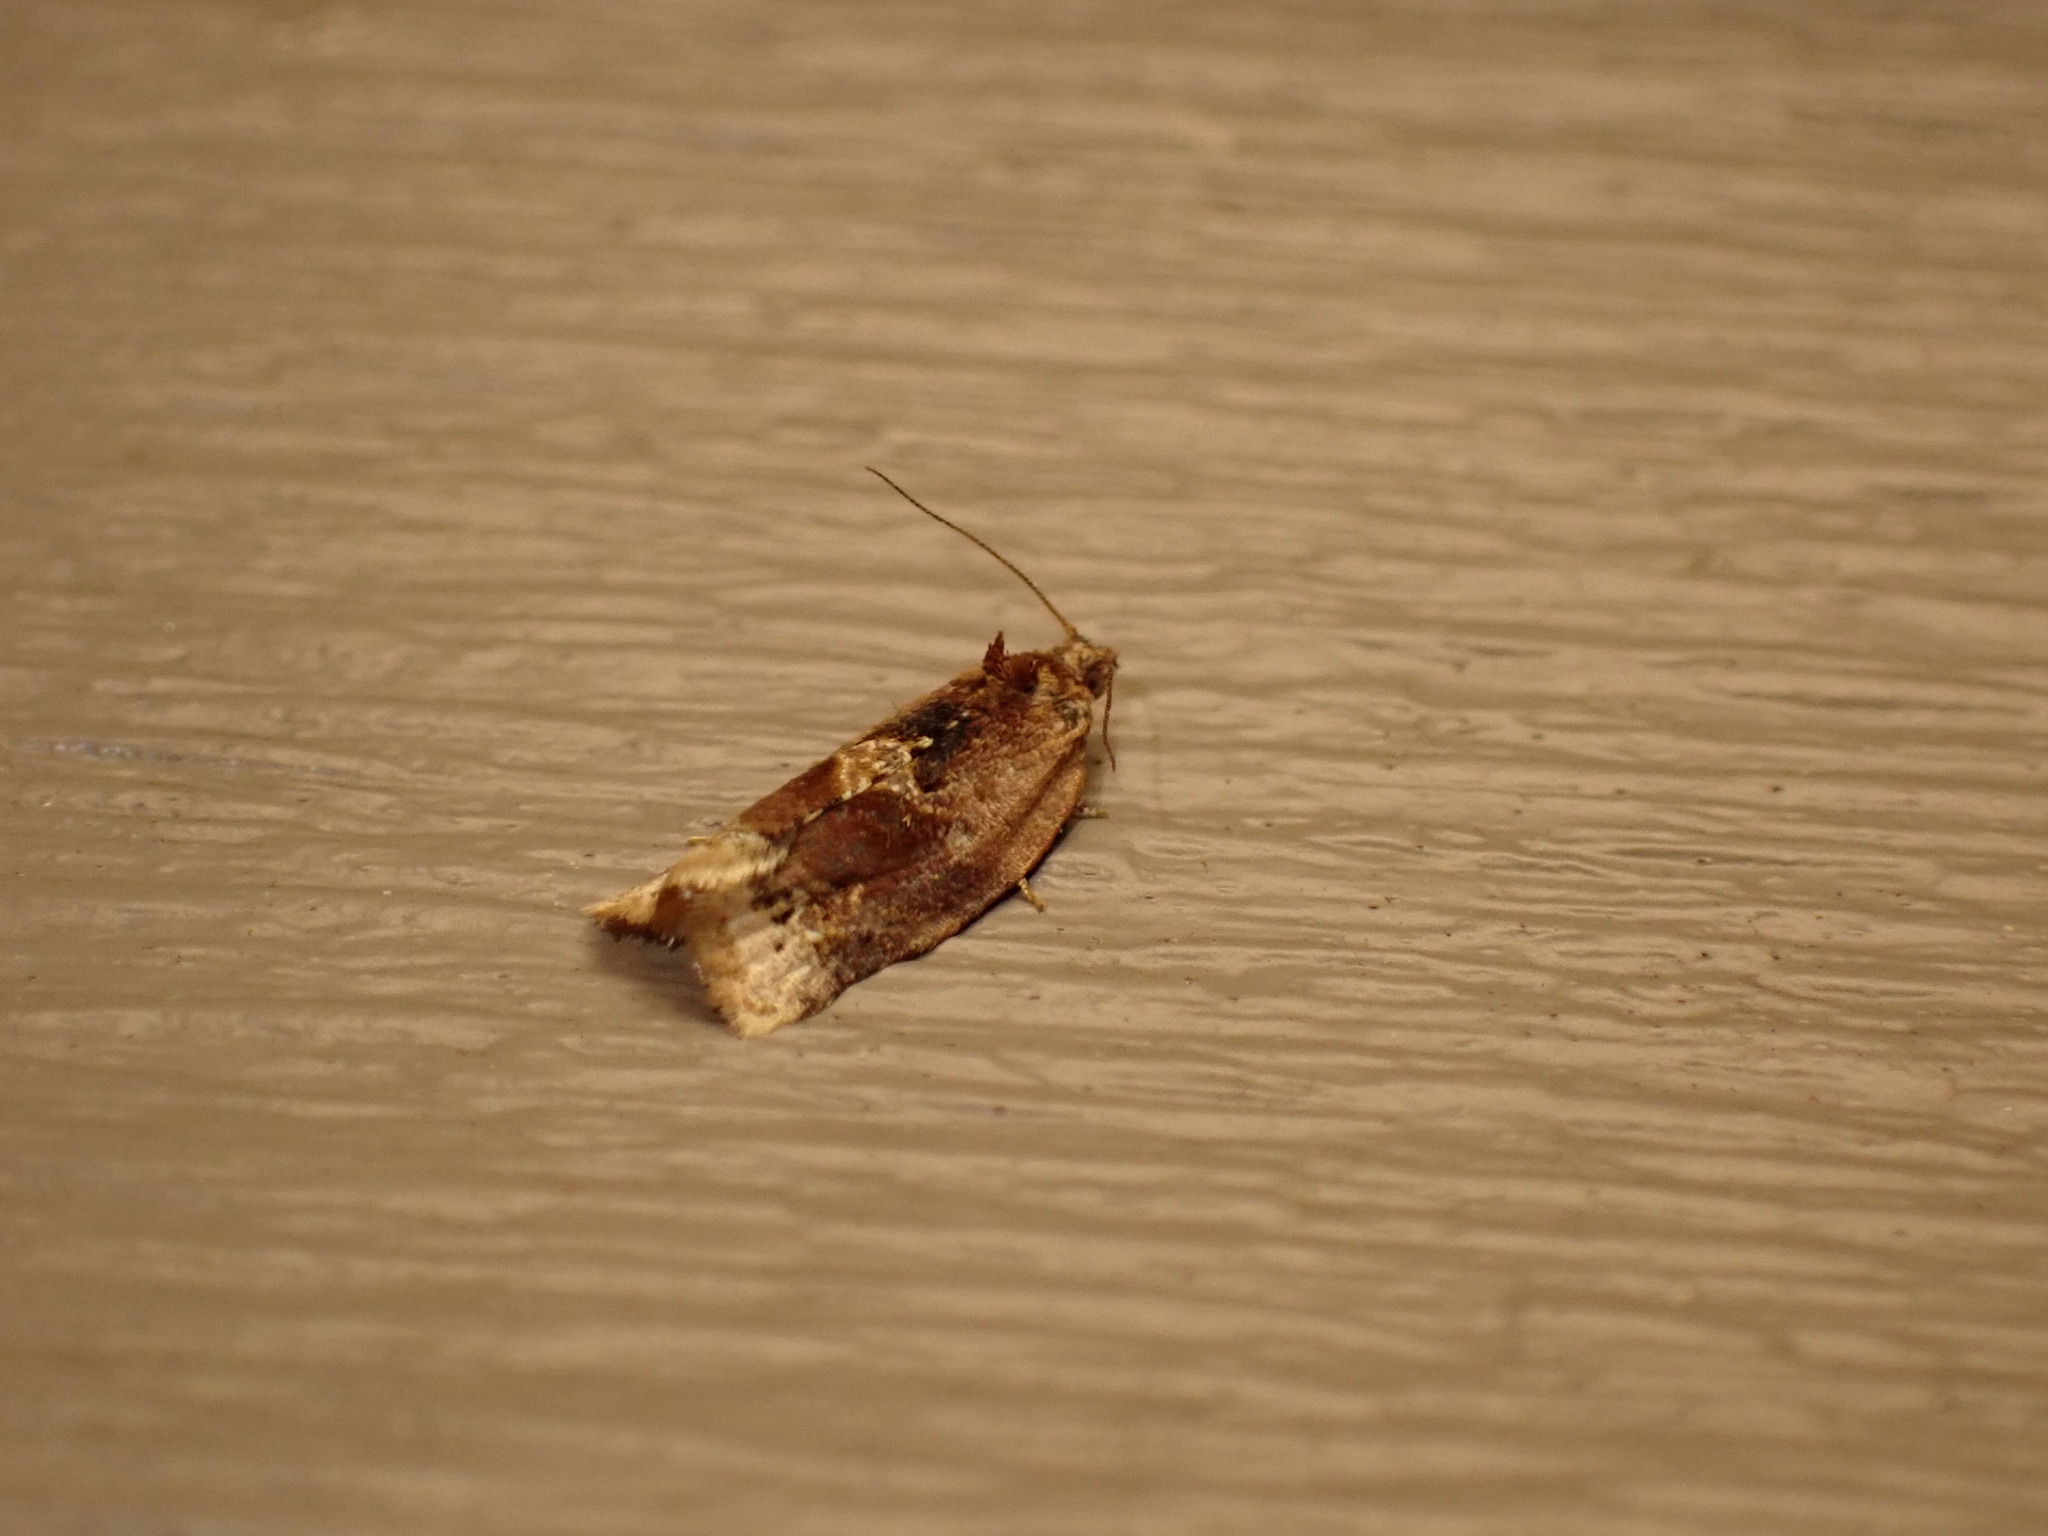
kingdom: Animalia
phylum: Arthropoda
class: Insecta
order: Lepidoptera
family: Tortricidae
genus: Argyrotaenia
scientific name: Argyrotaenia velutinana
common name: Red-banded leafroller moth
